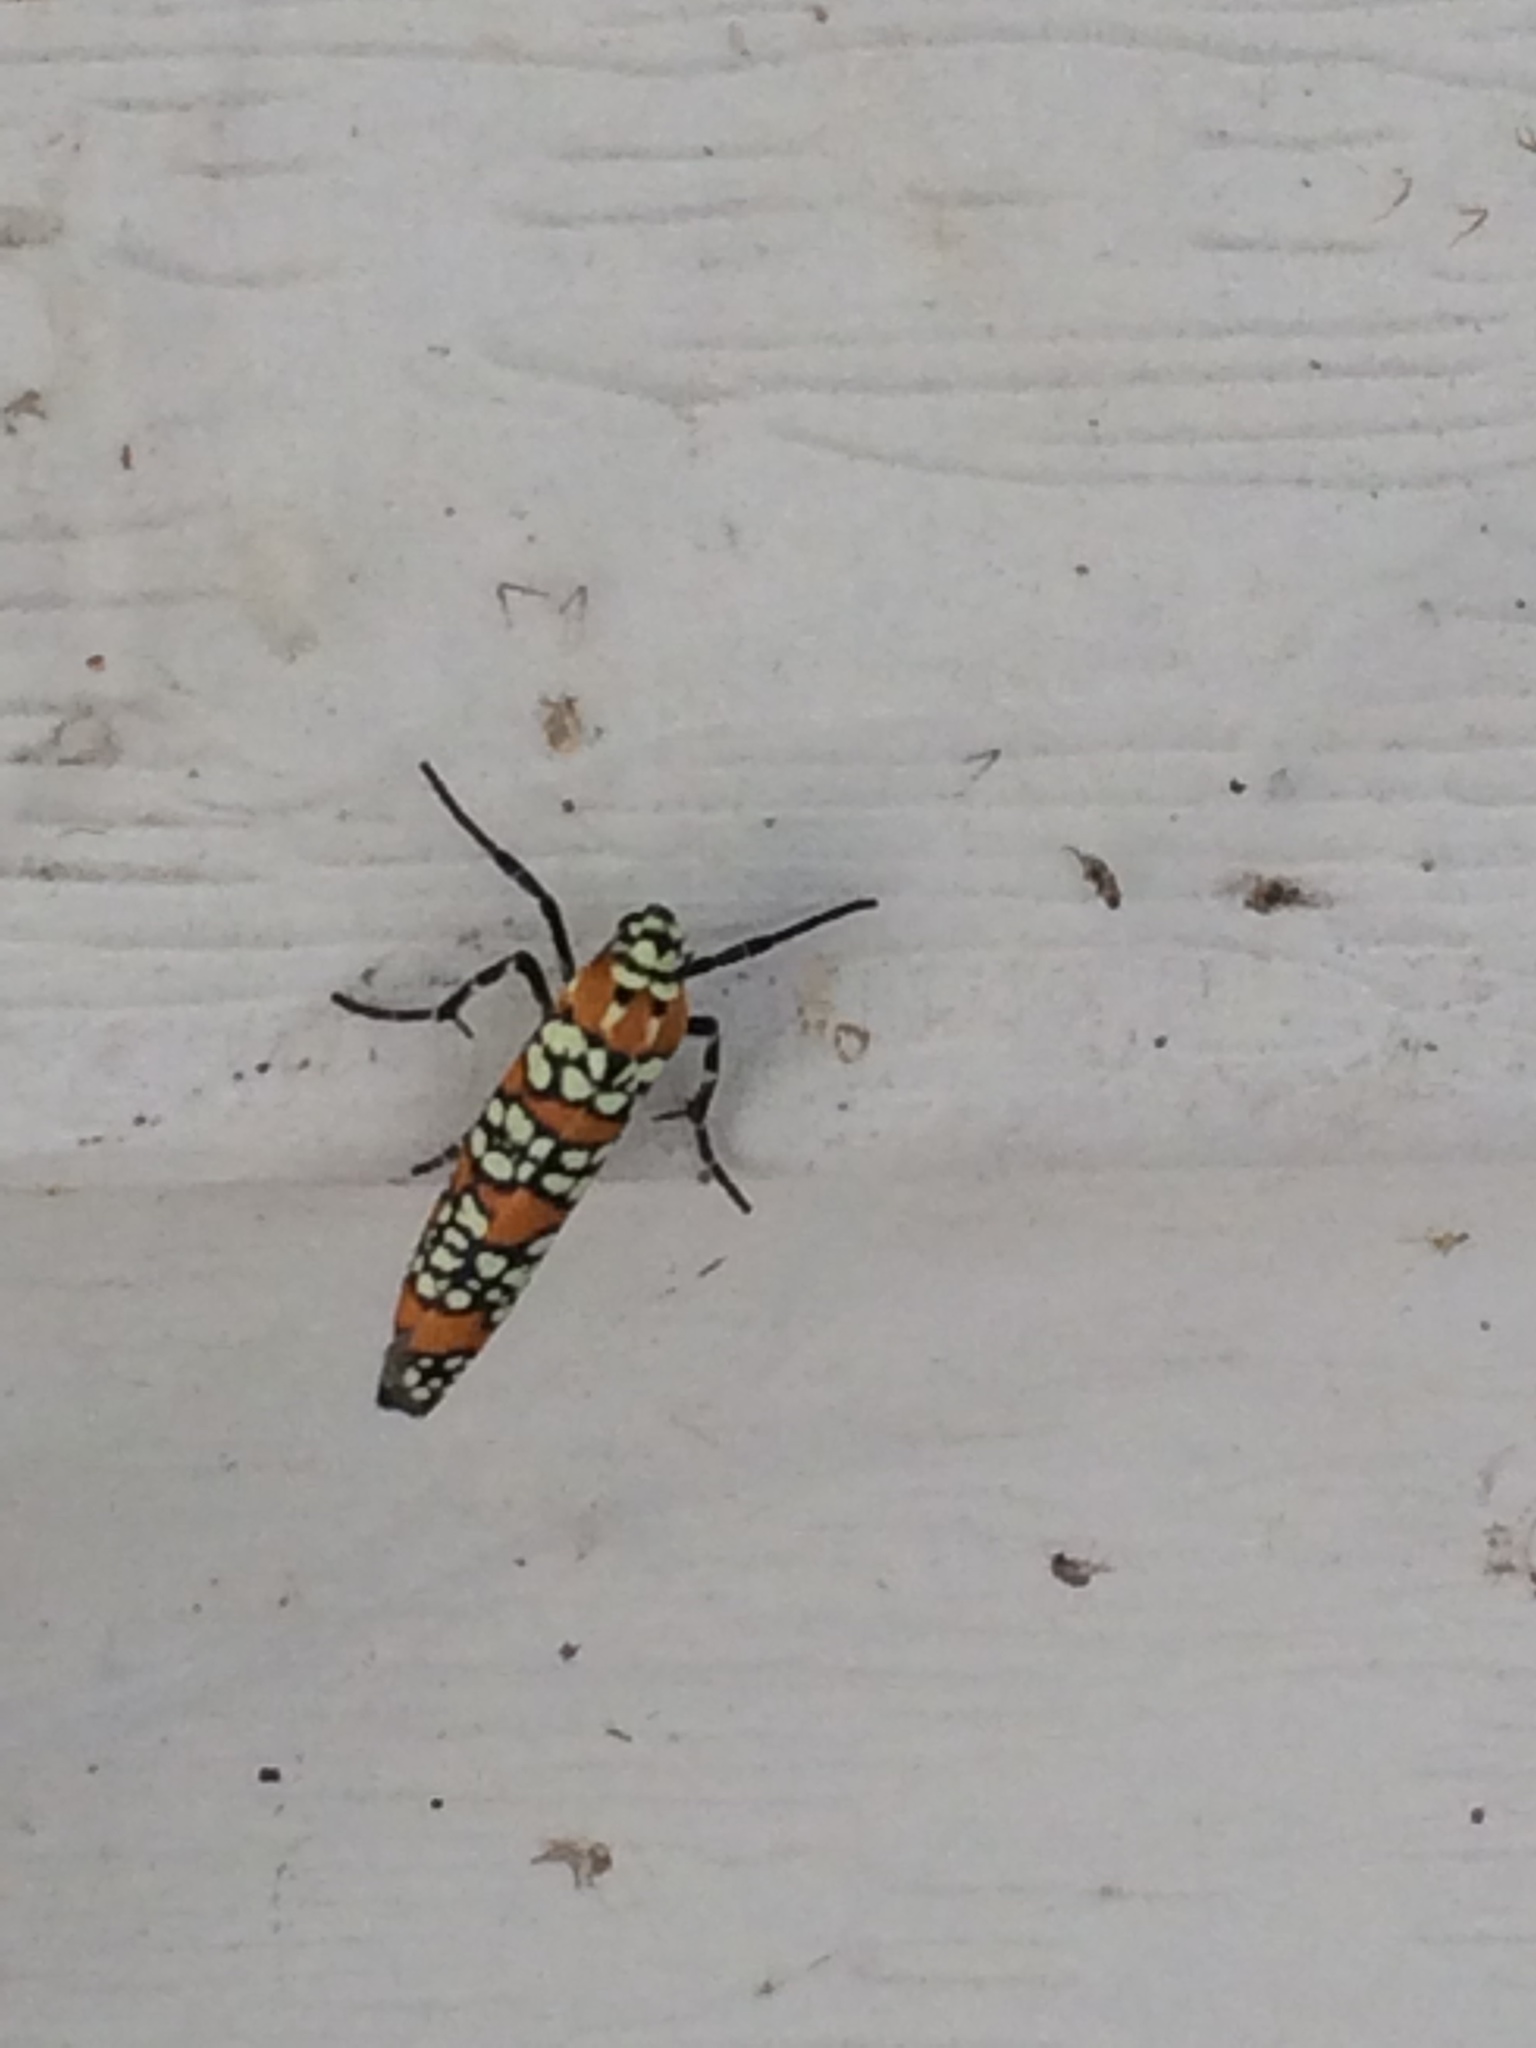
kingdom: Animalia
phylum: Arthropoda
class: Insecta
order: Lepidoptera
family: Attevidae
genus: Atteva
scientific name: Atteva punctella
